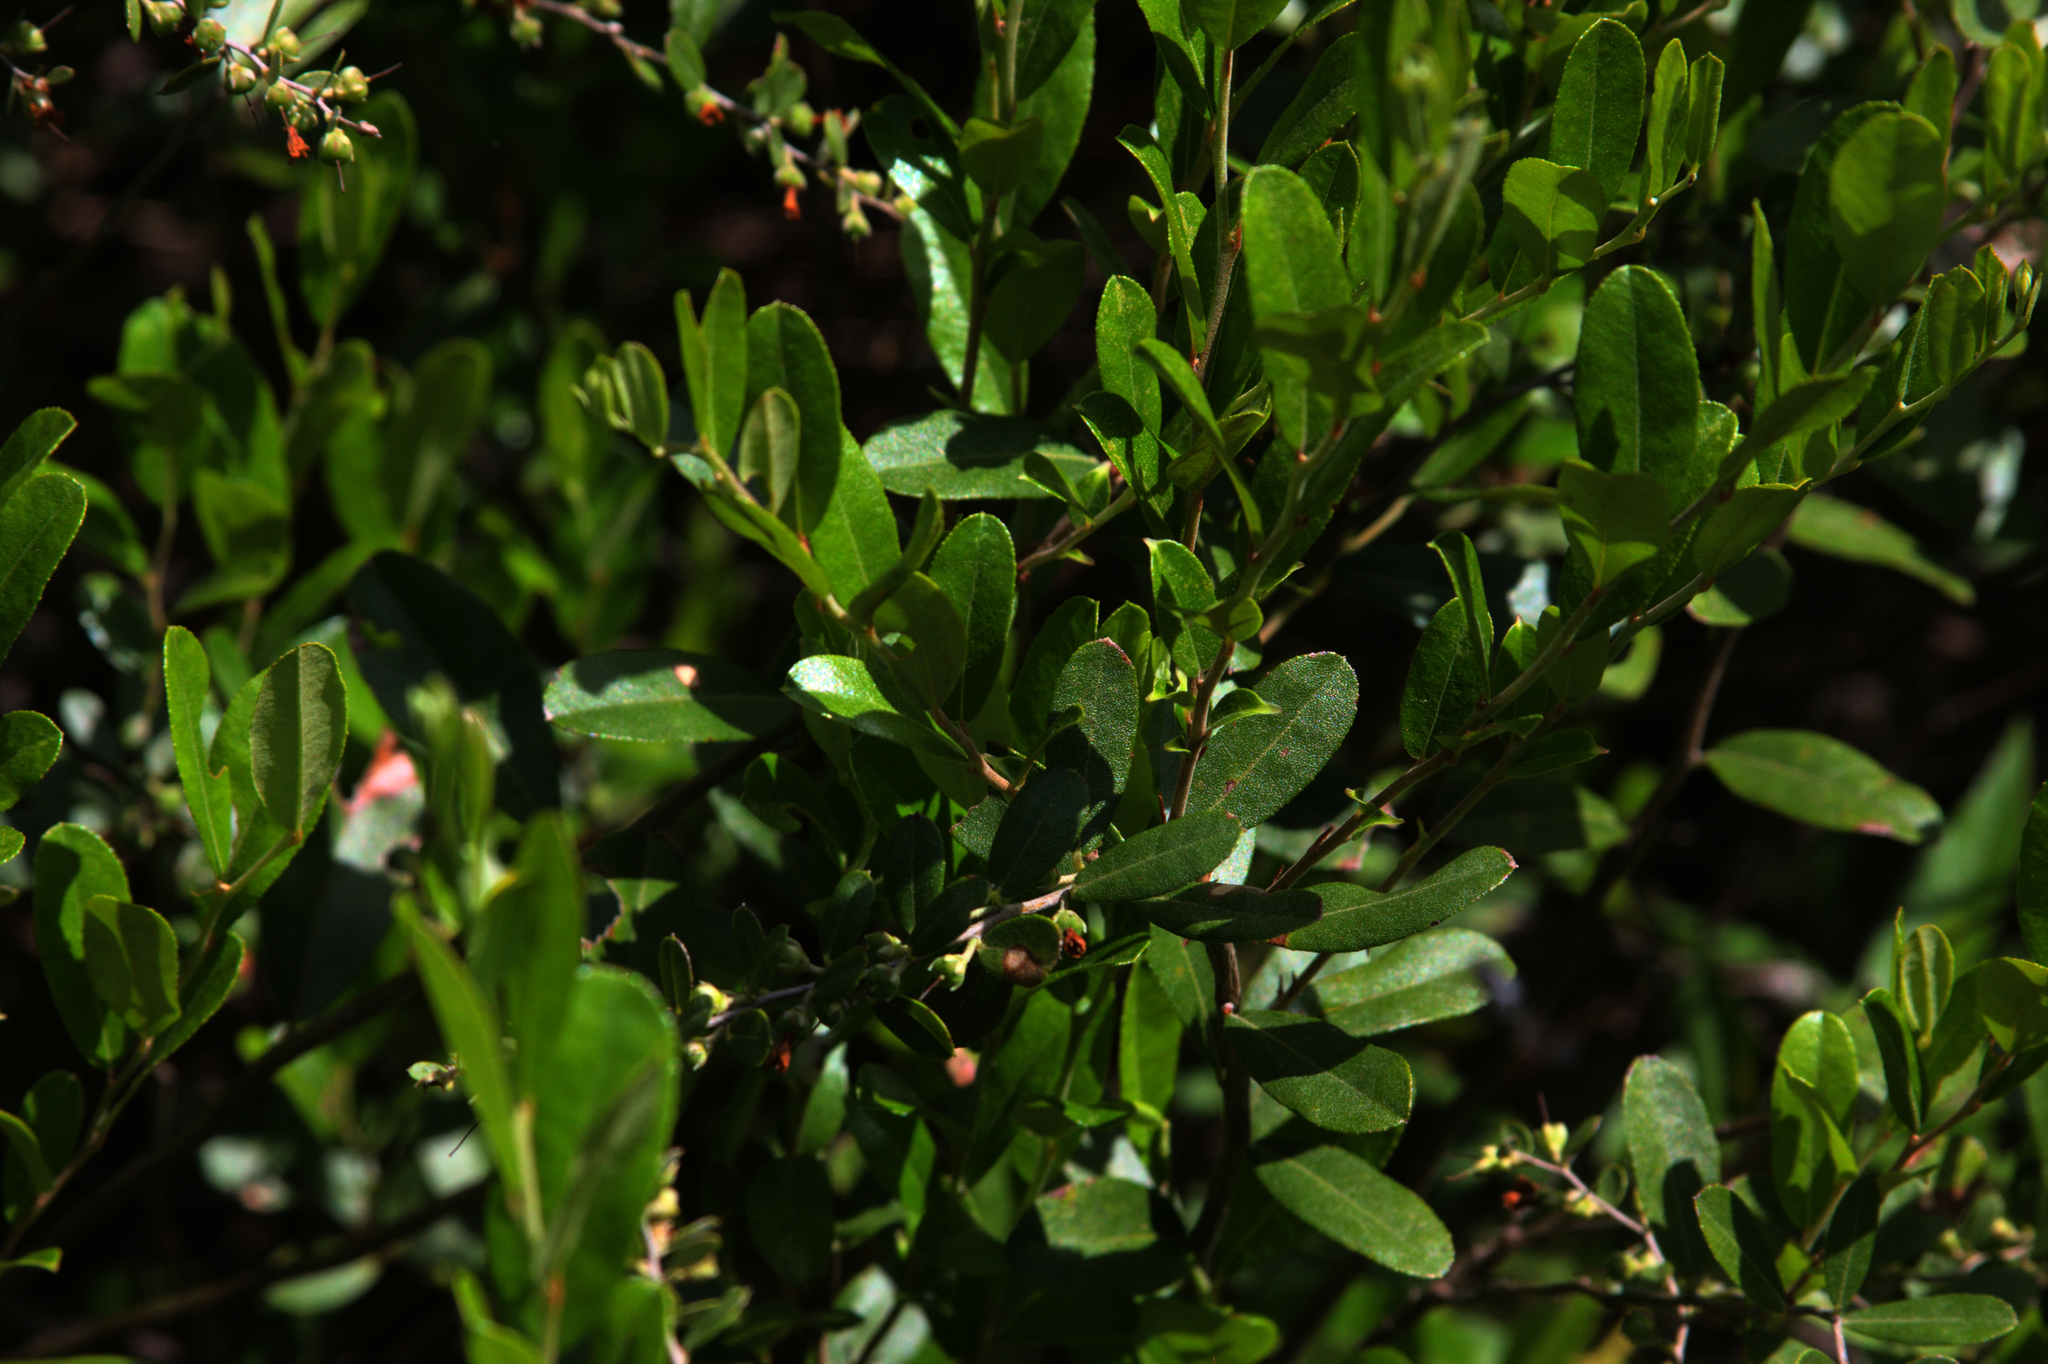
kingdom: Plantae
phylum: Tracheophyta
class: Magnoliopsida
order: Ericales
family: Ericaceae
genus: Chamaedaphne
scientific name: Chamaedaphne calyculata
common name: Leatherleaf
